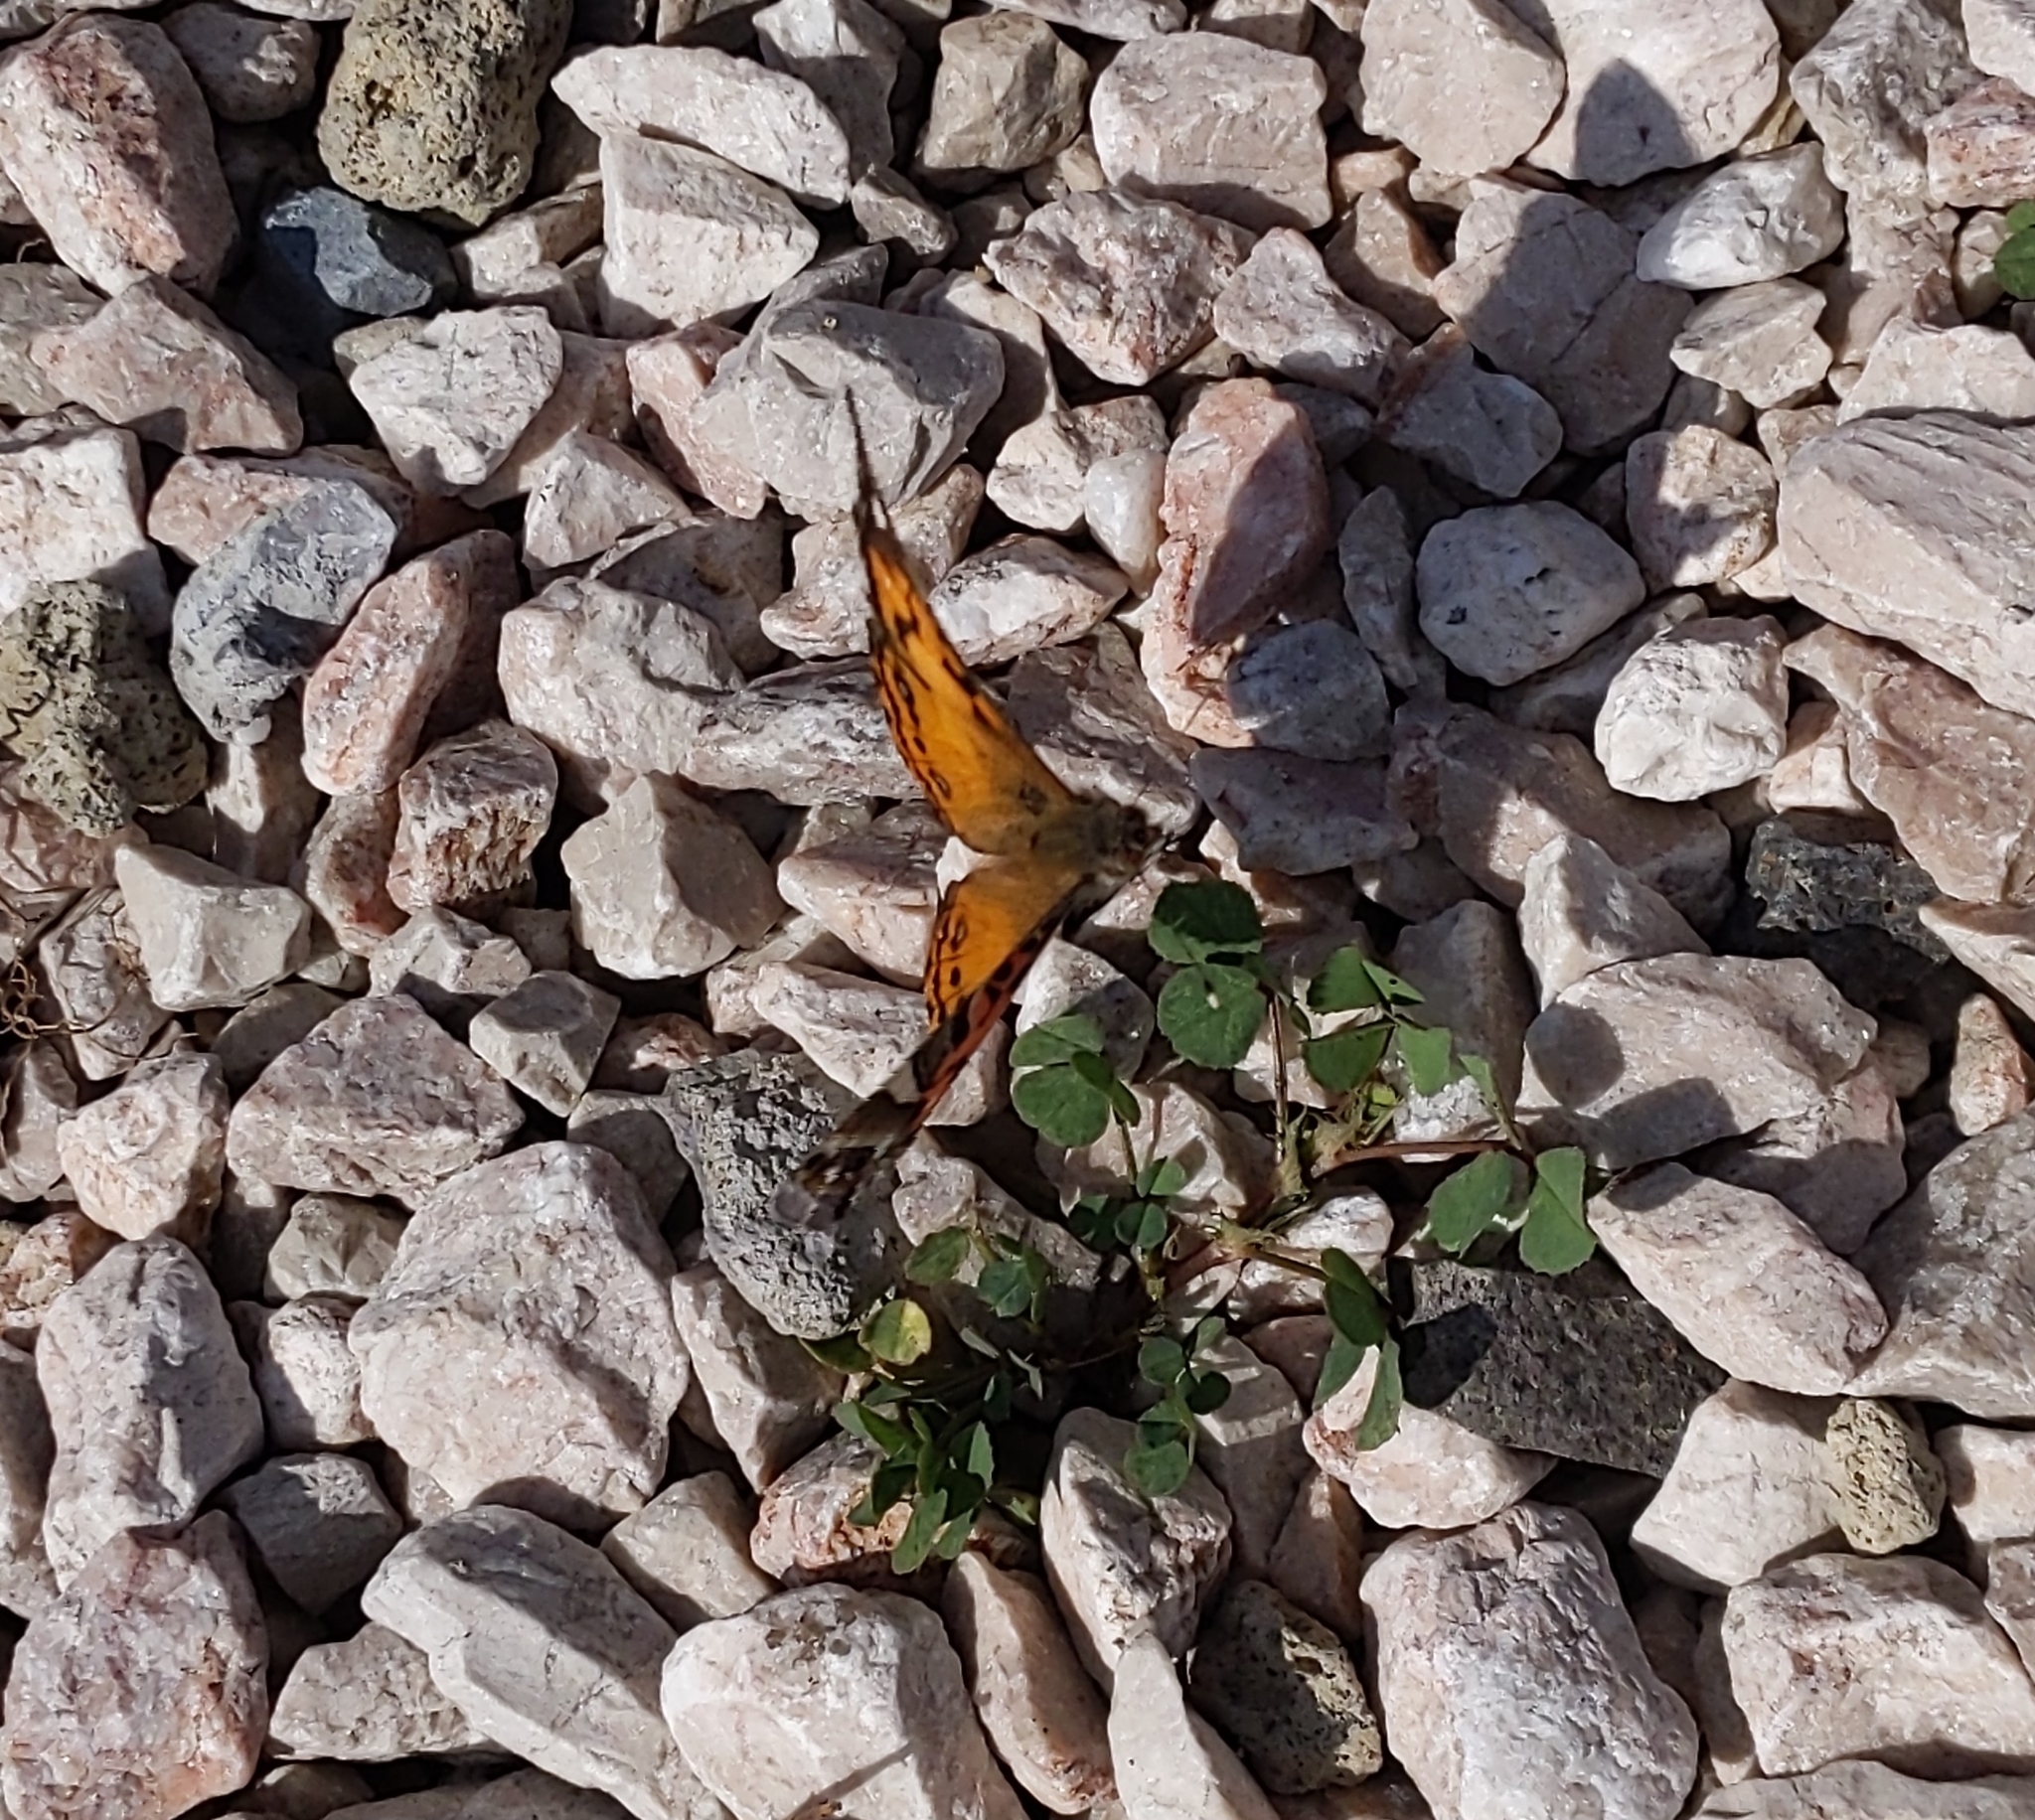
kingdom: Animalia
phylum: Arthropoda
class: Insecta
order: Lepidoptera
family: Nymphalidae
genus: Vanessa
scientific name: Vanessa virginiensis
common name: American lady
